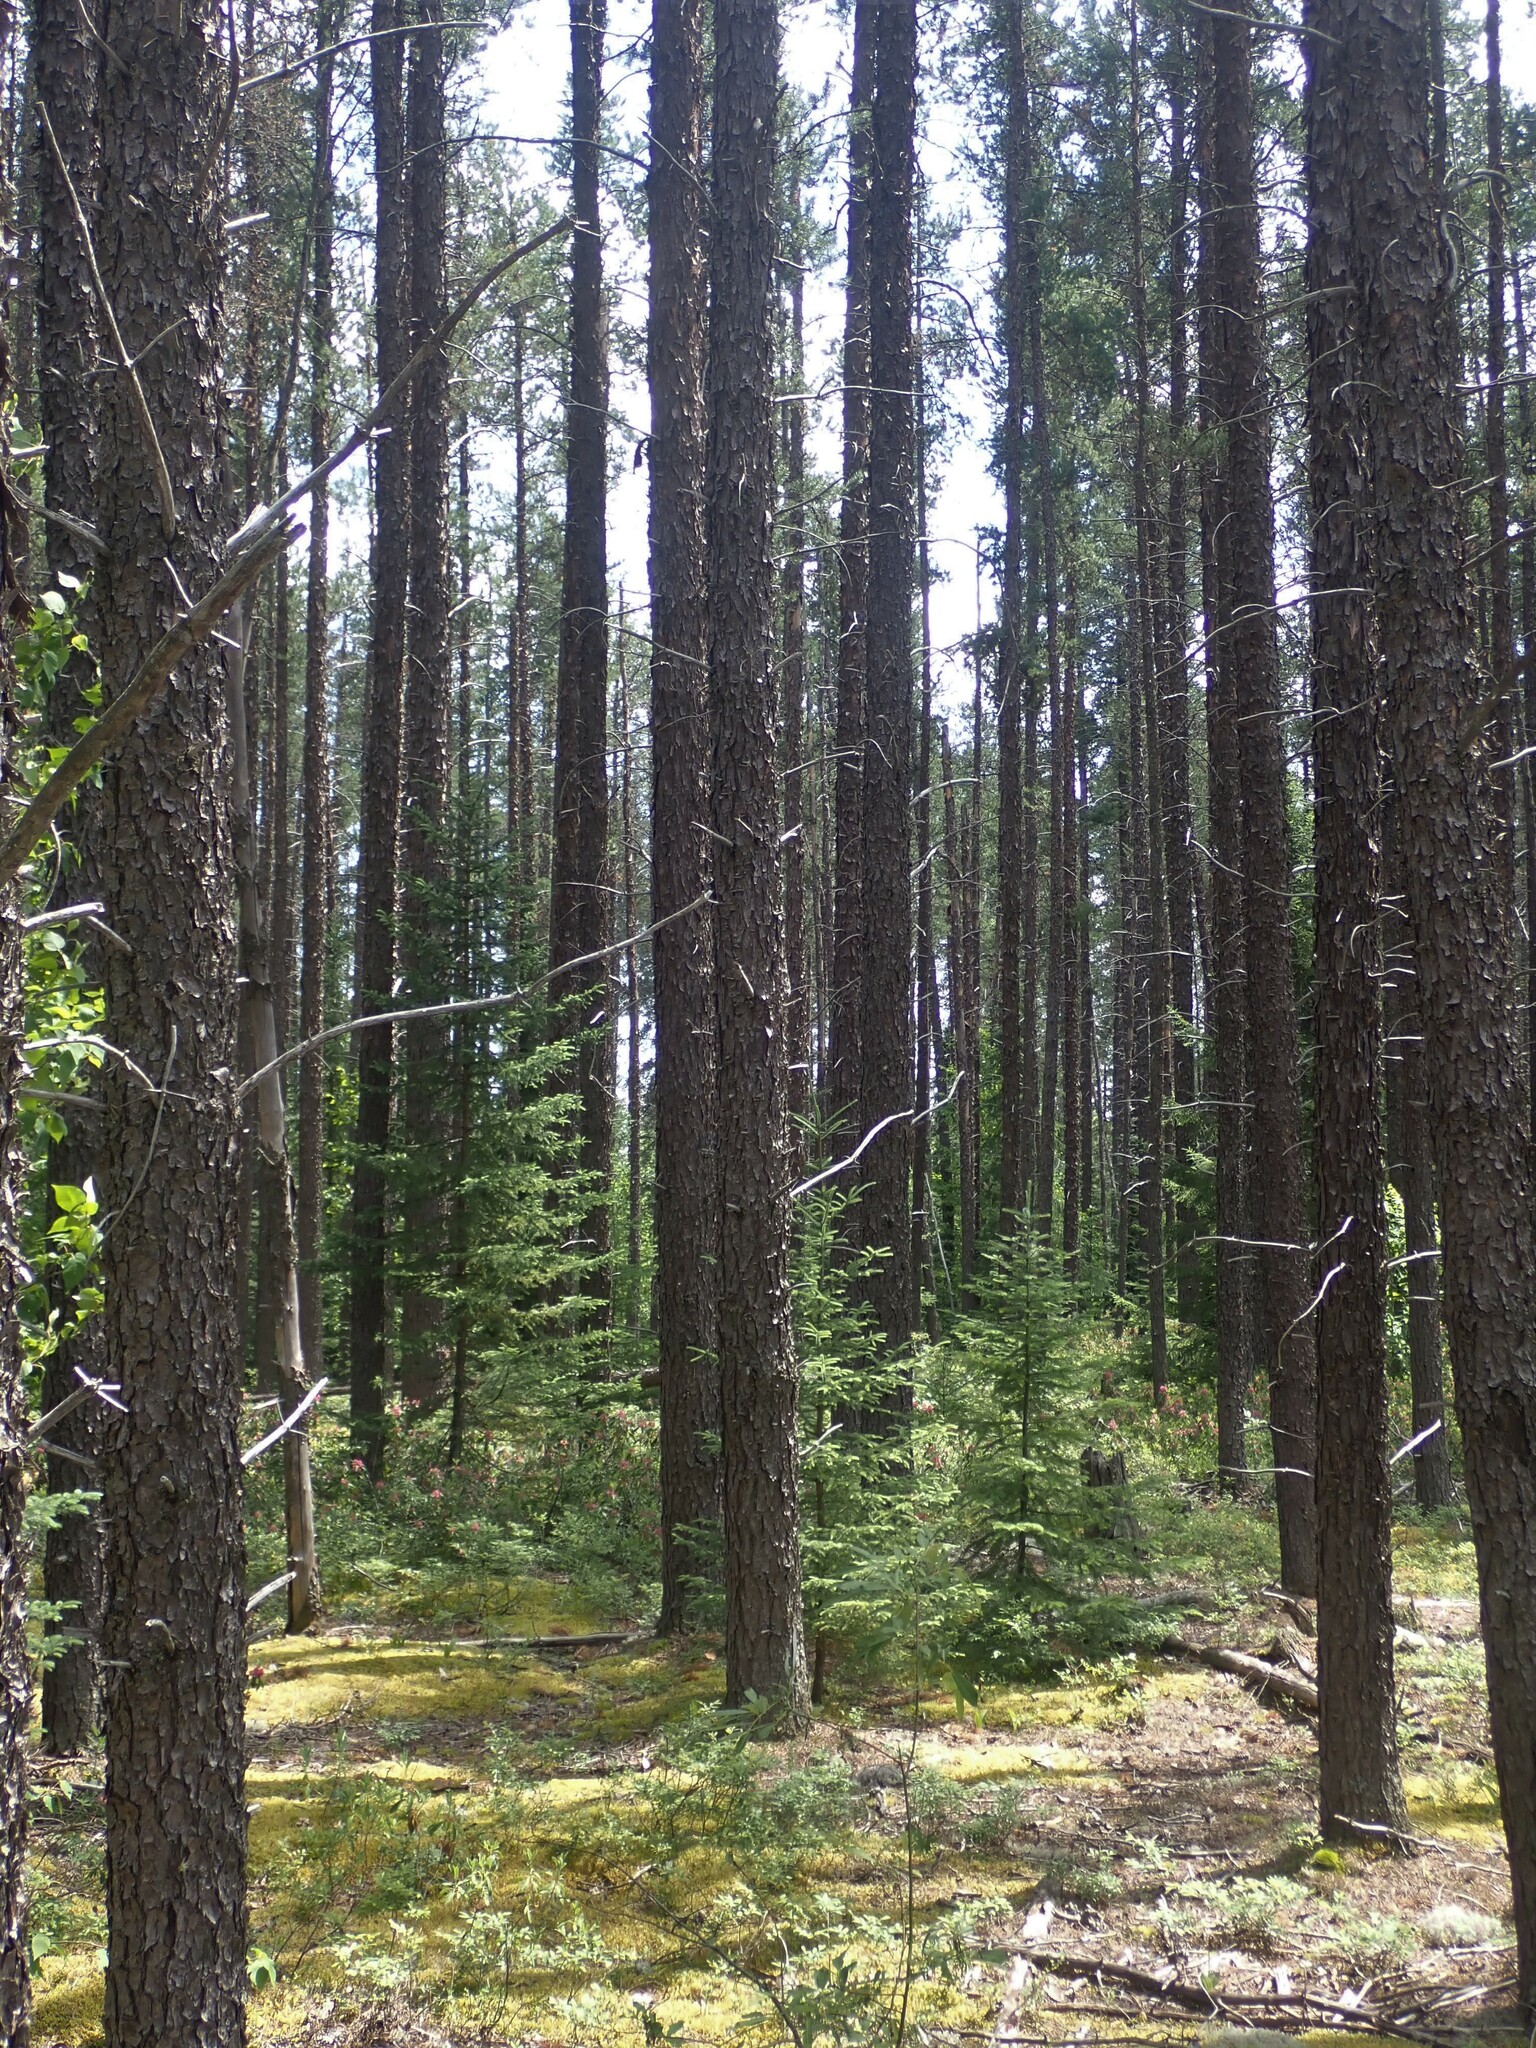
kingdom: Plantae
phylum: Tracheophyta
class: Pinopsida
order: Pinales
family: Pinaceae
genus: Pinus
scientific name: Pinus banksiana
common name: Jack pine
